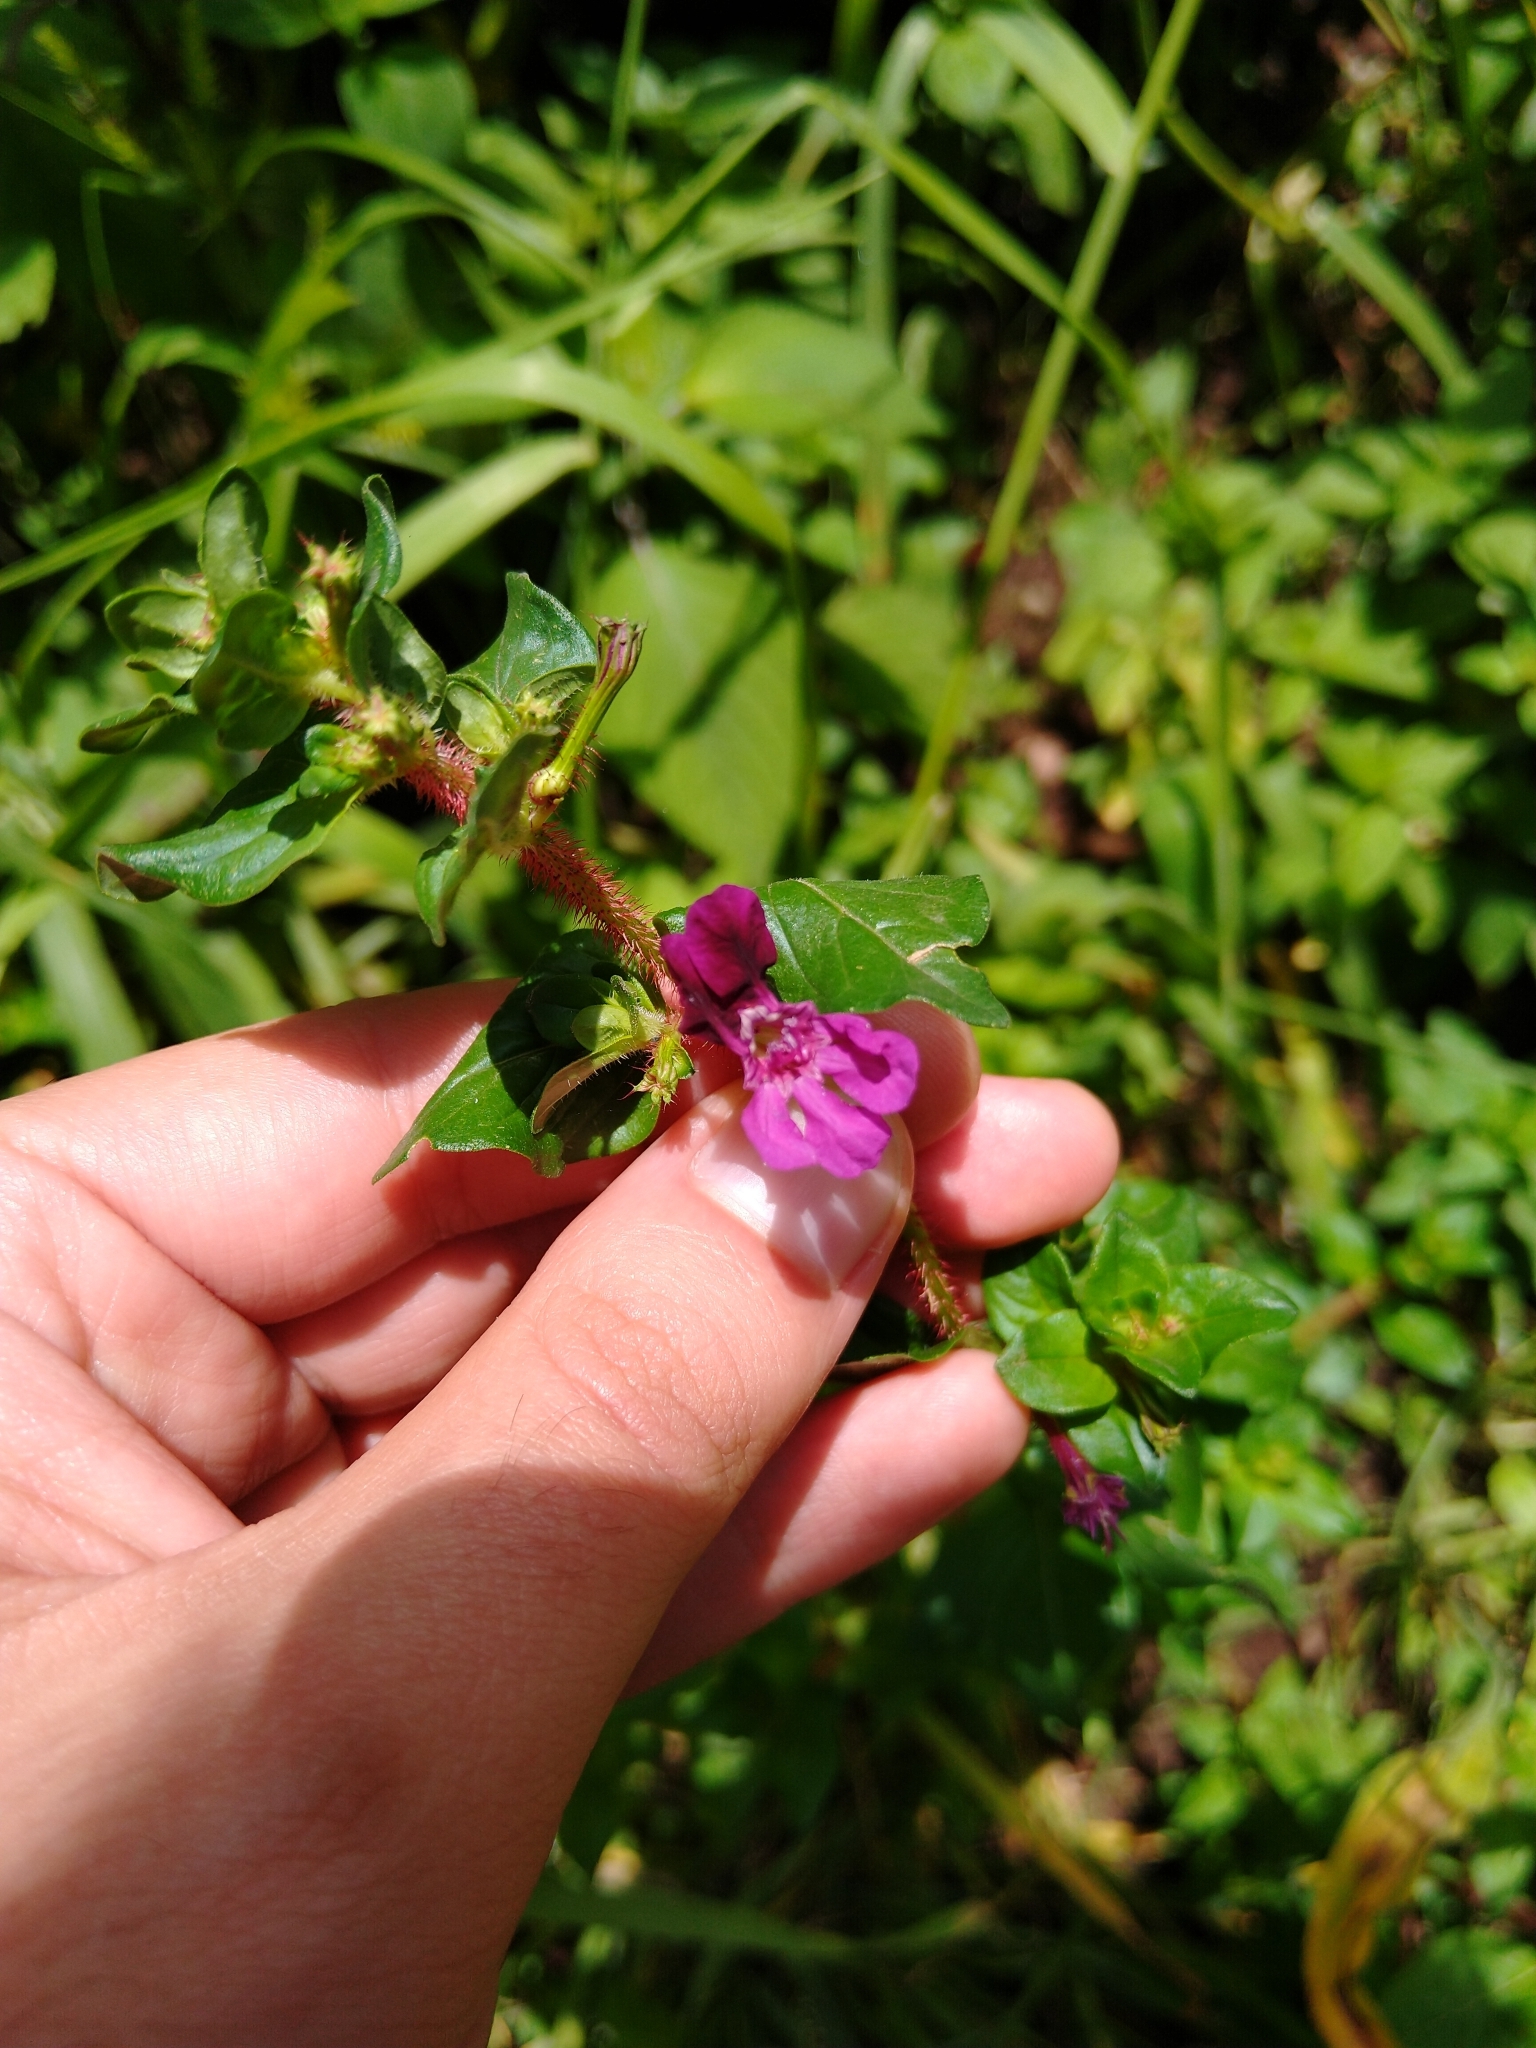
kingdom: Plantae
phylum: Tracheophyta
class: Magnoliopsida
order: Myrtales
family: Lythraceae
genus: Cuphea
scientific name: Cuphea aequipetala
